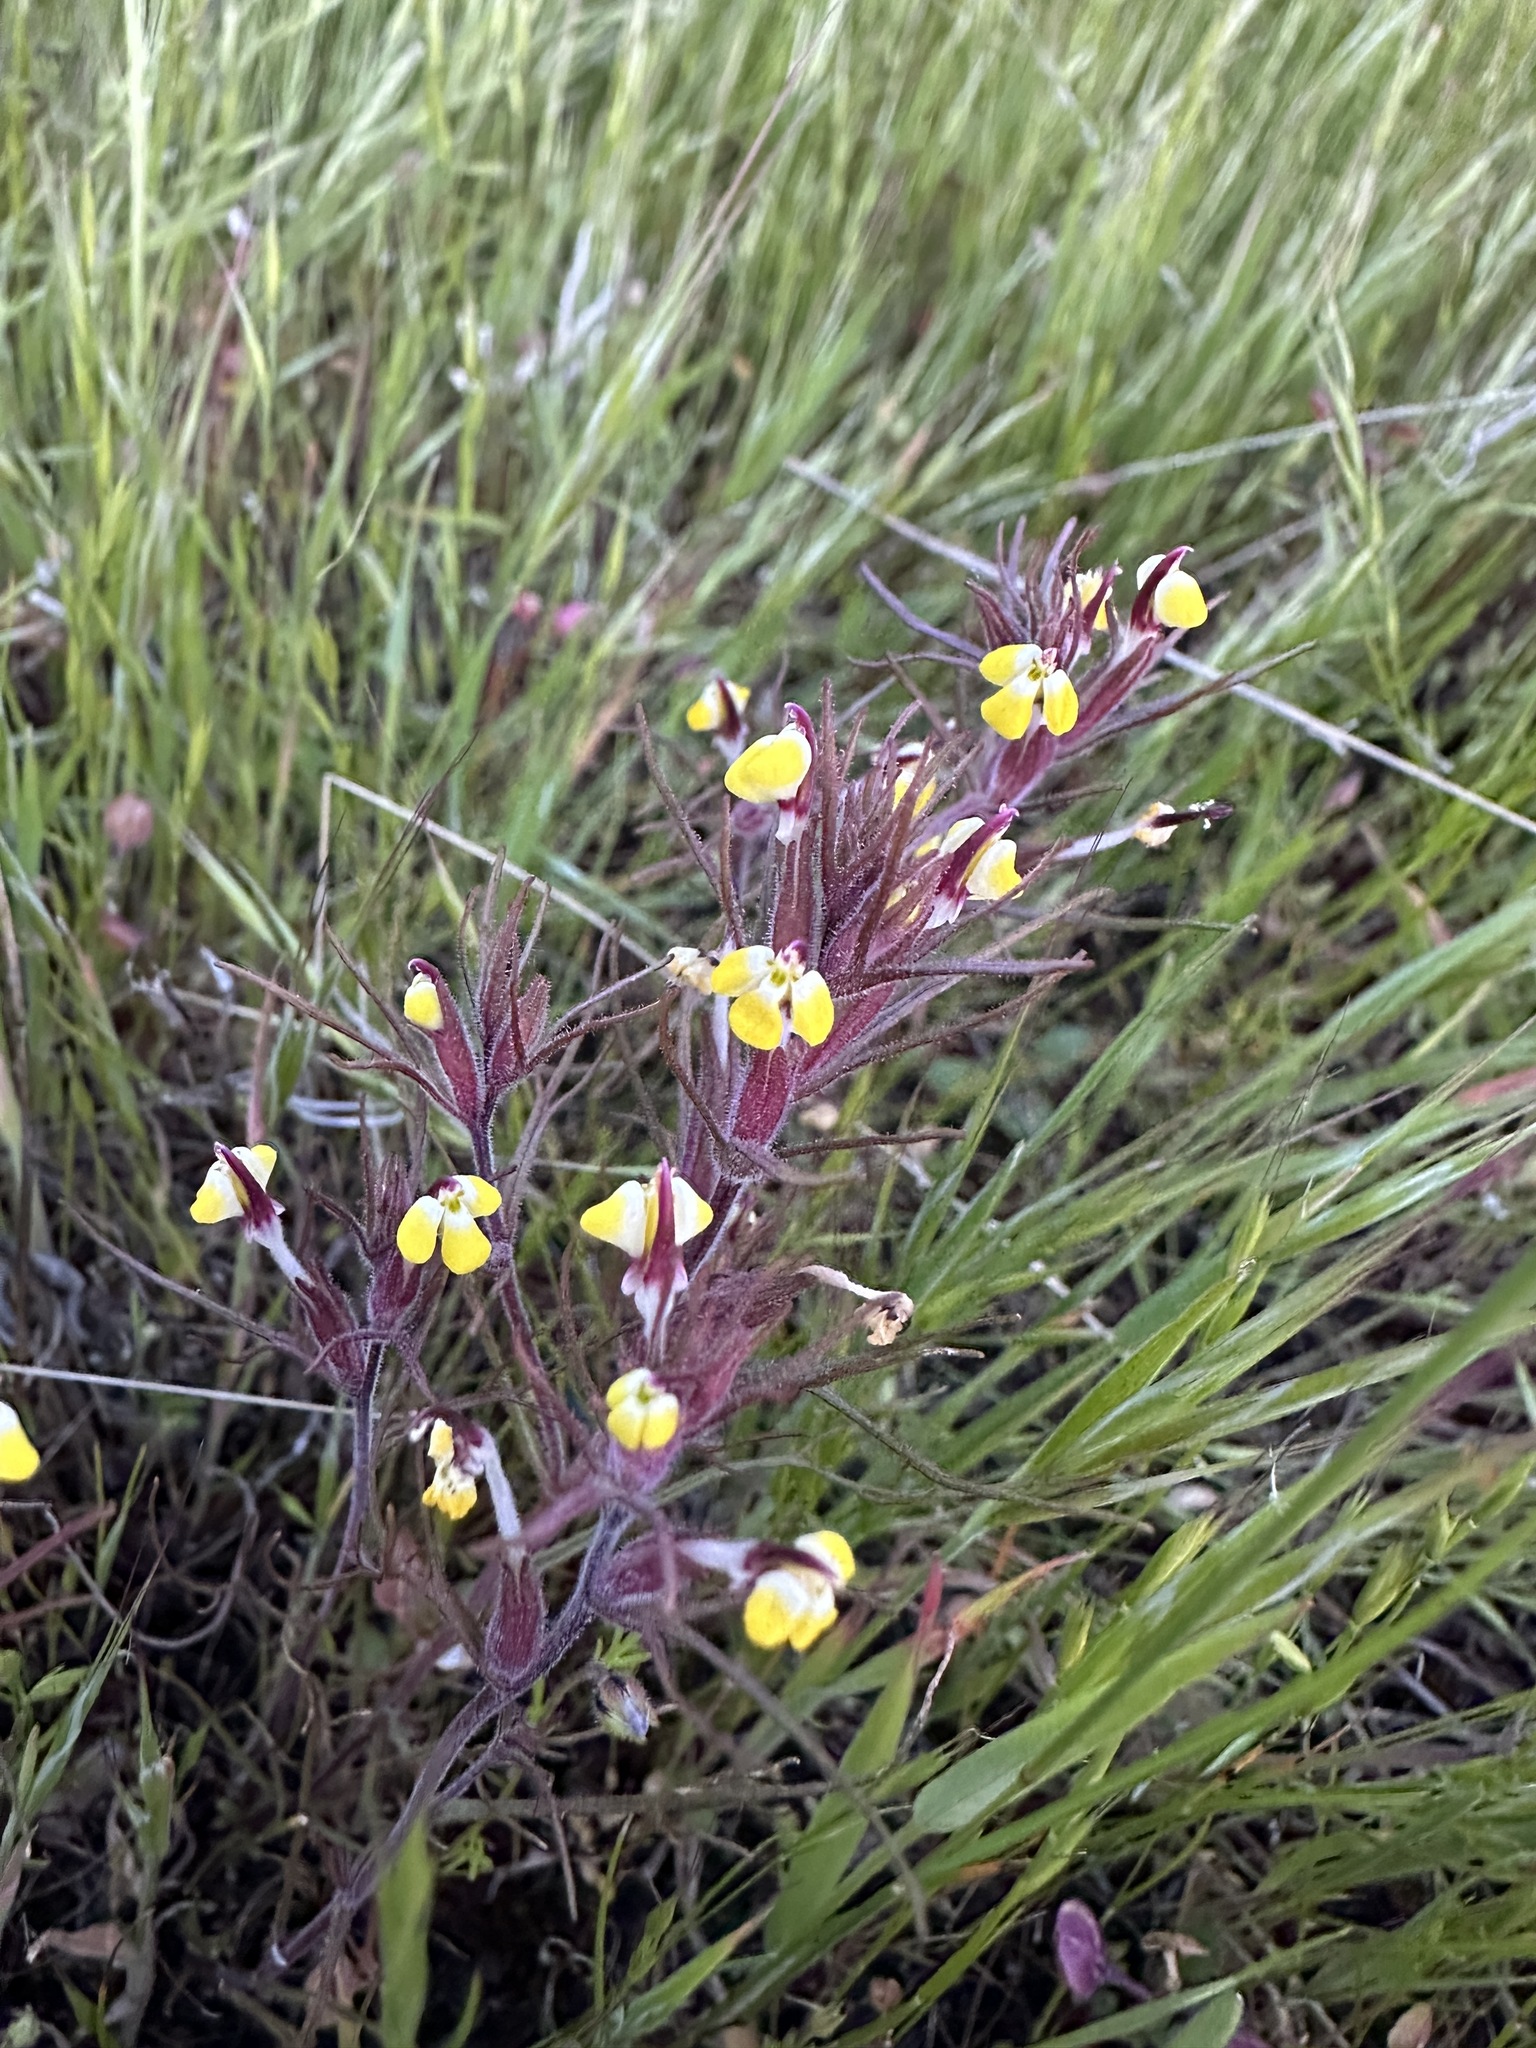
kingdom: Plantae
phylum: Tracheophyta
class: Magnoliopsida
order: Lamiales
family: Orobanchaceae
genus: Triphysaria
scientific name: Triphysaria eriantha
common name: Johnny-tuck
